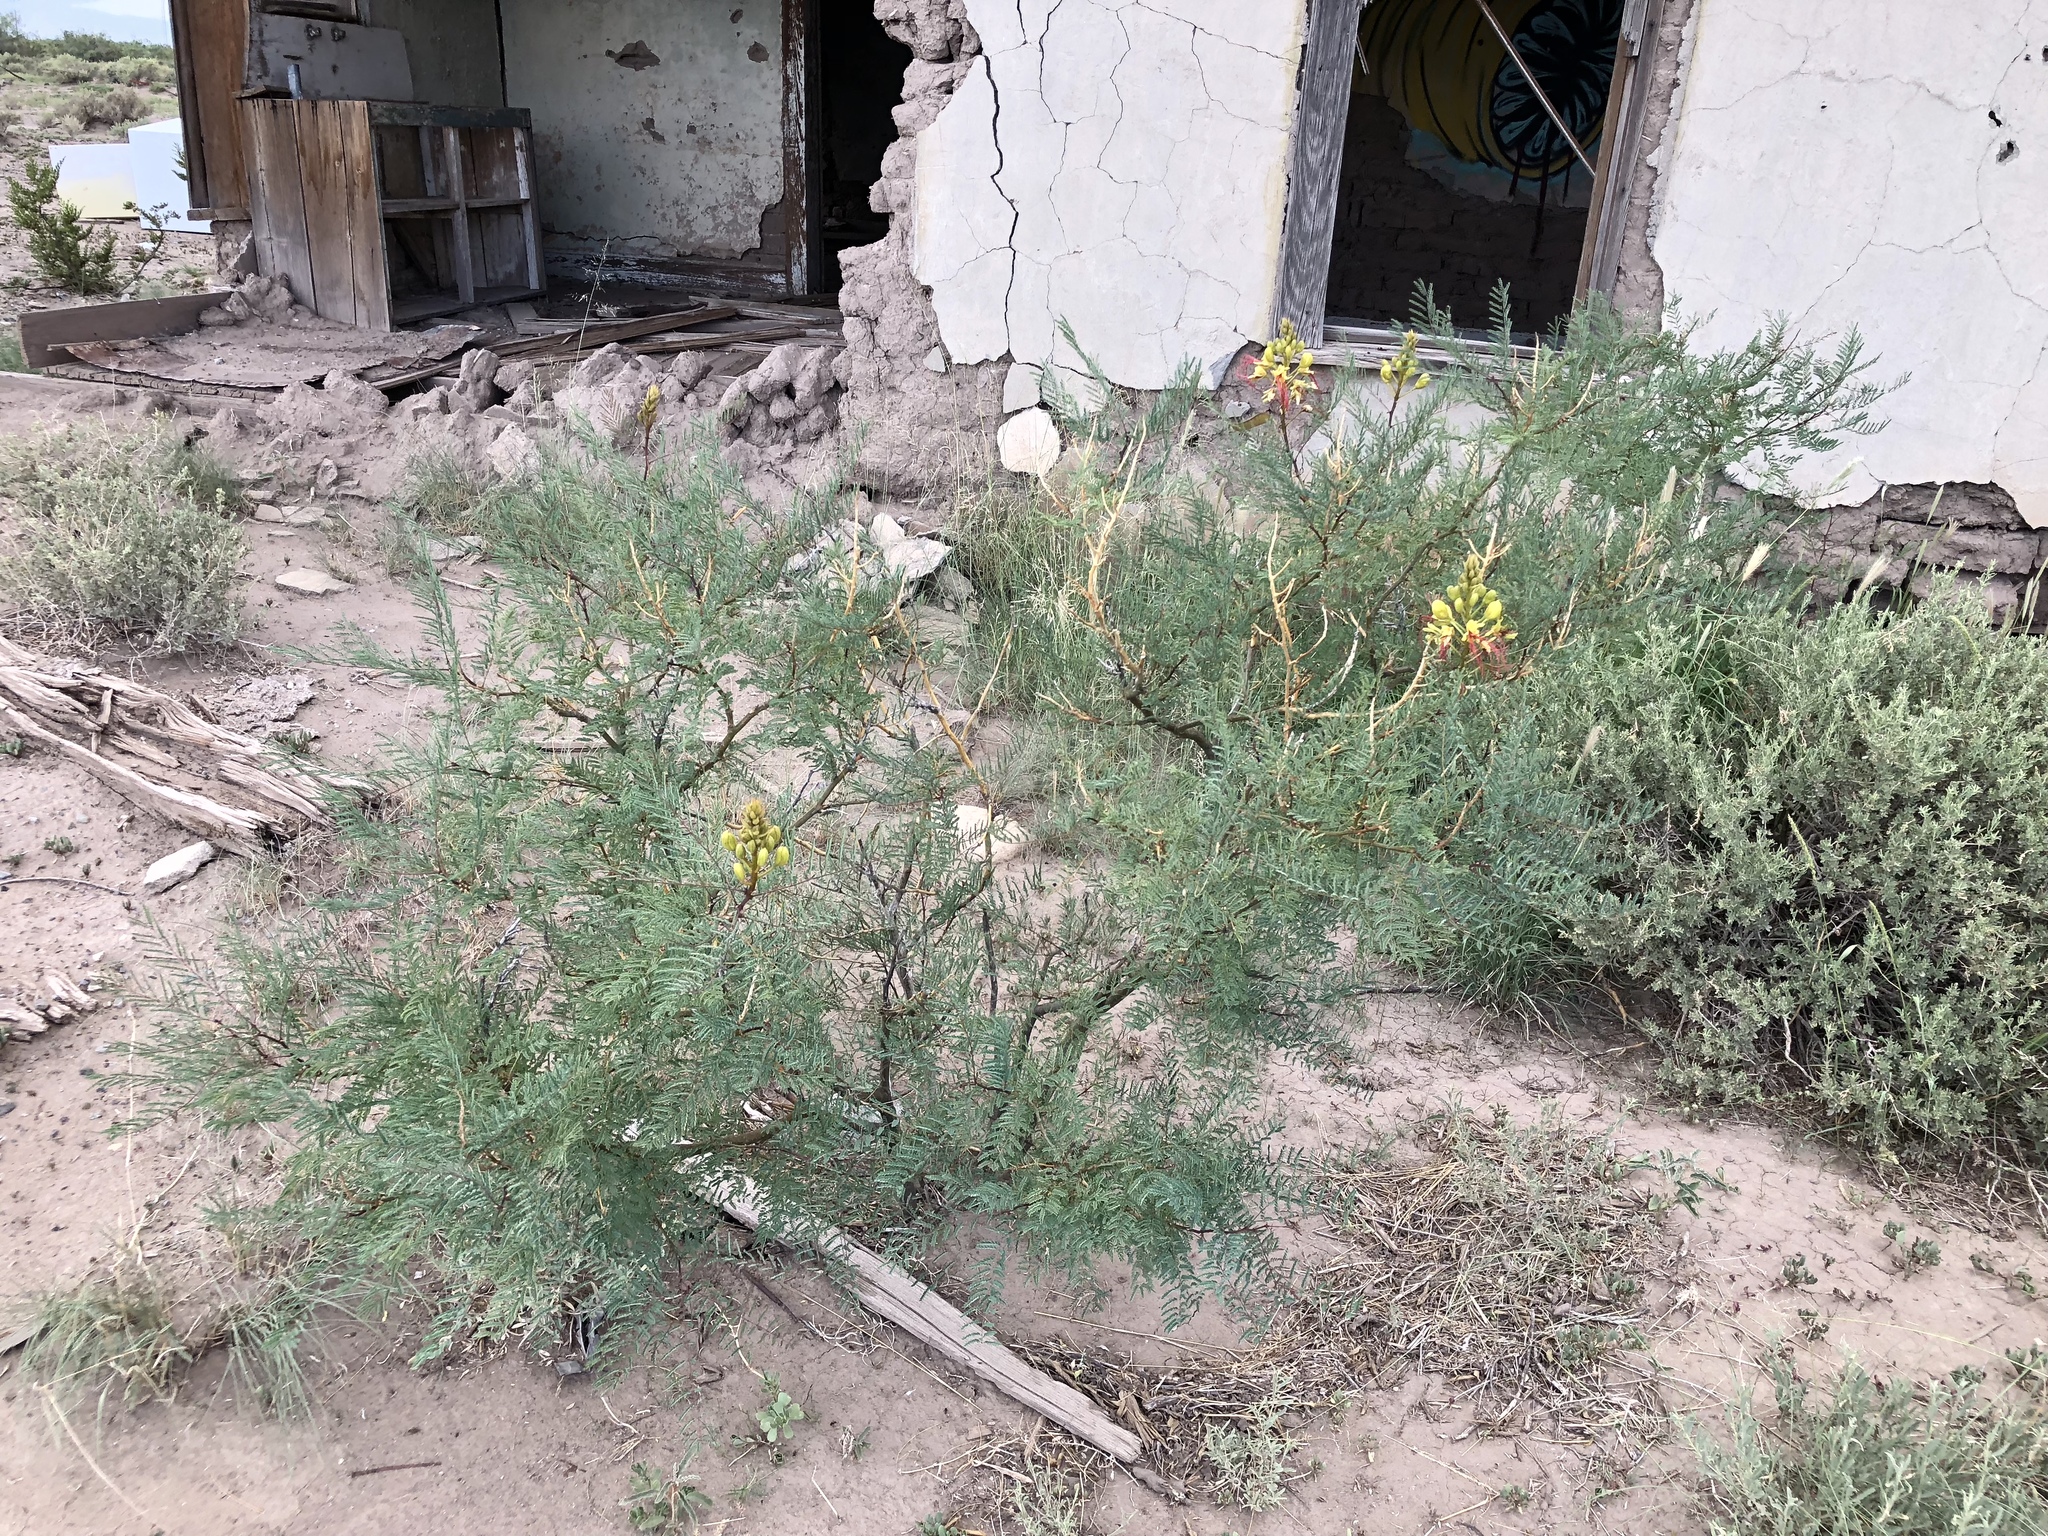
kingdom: Plantae
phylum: Tracheophyta
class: Magnoliopsida
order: Fabales
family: Fabaceae
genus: Erythrostemon
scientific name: Erythrostemon gilliesii
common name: Bird-of-paradise shrub
